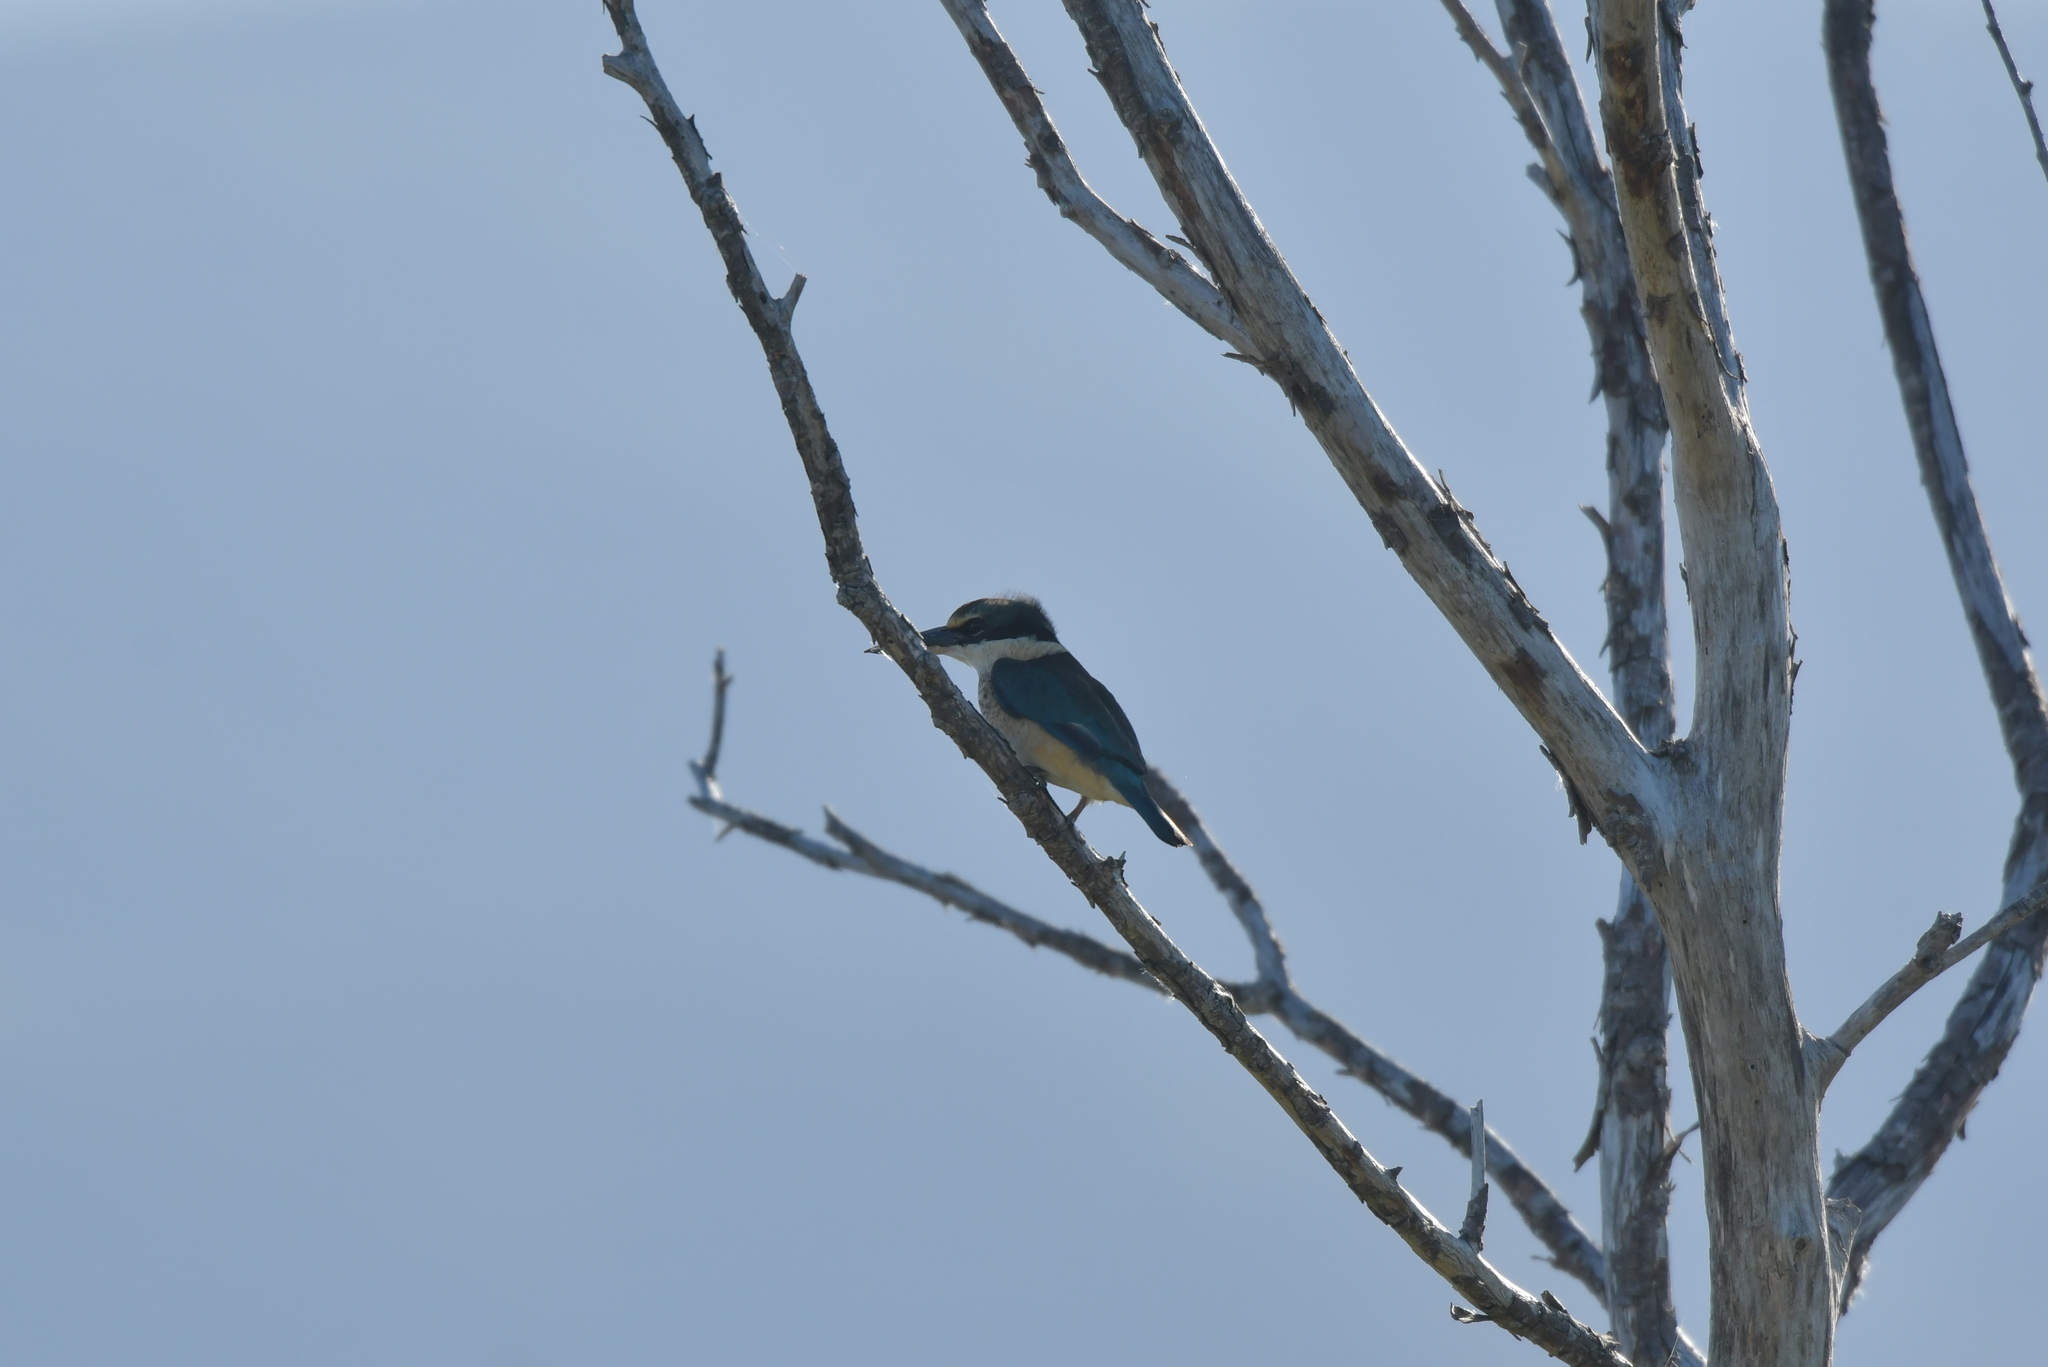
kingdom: Animalia
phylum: Chordata
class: Aves
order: Coraciiformes
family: Alcedinidae
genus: Todiramphus
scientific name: Todiramphus sanctus
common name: Sacred kingfisher
